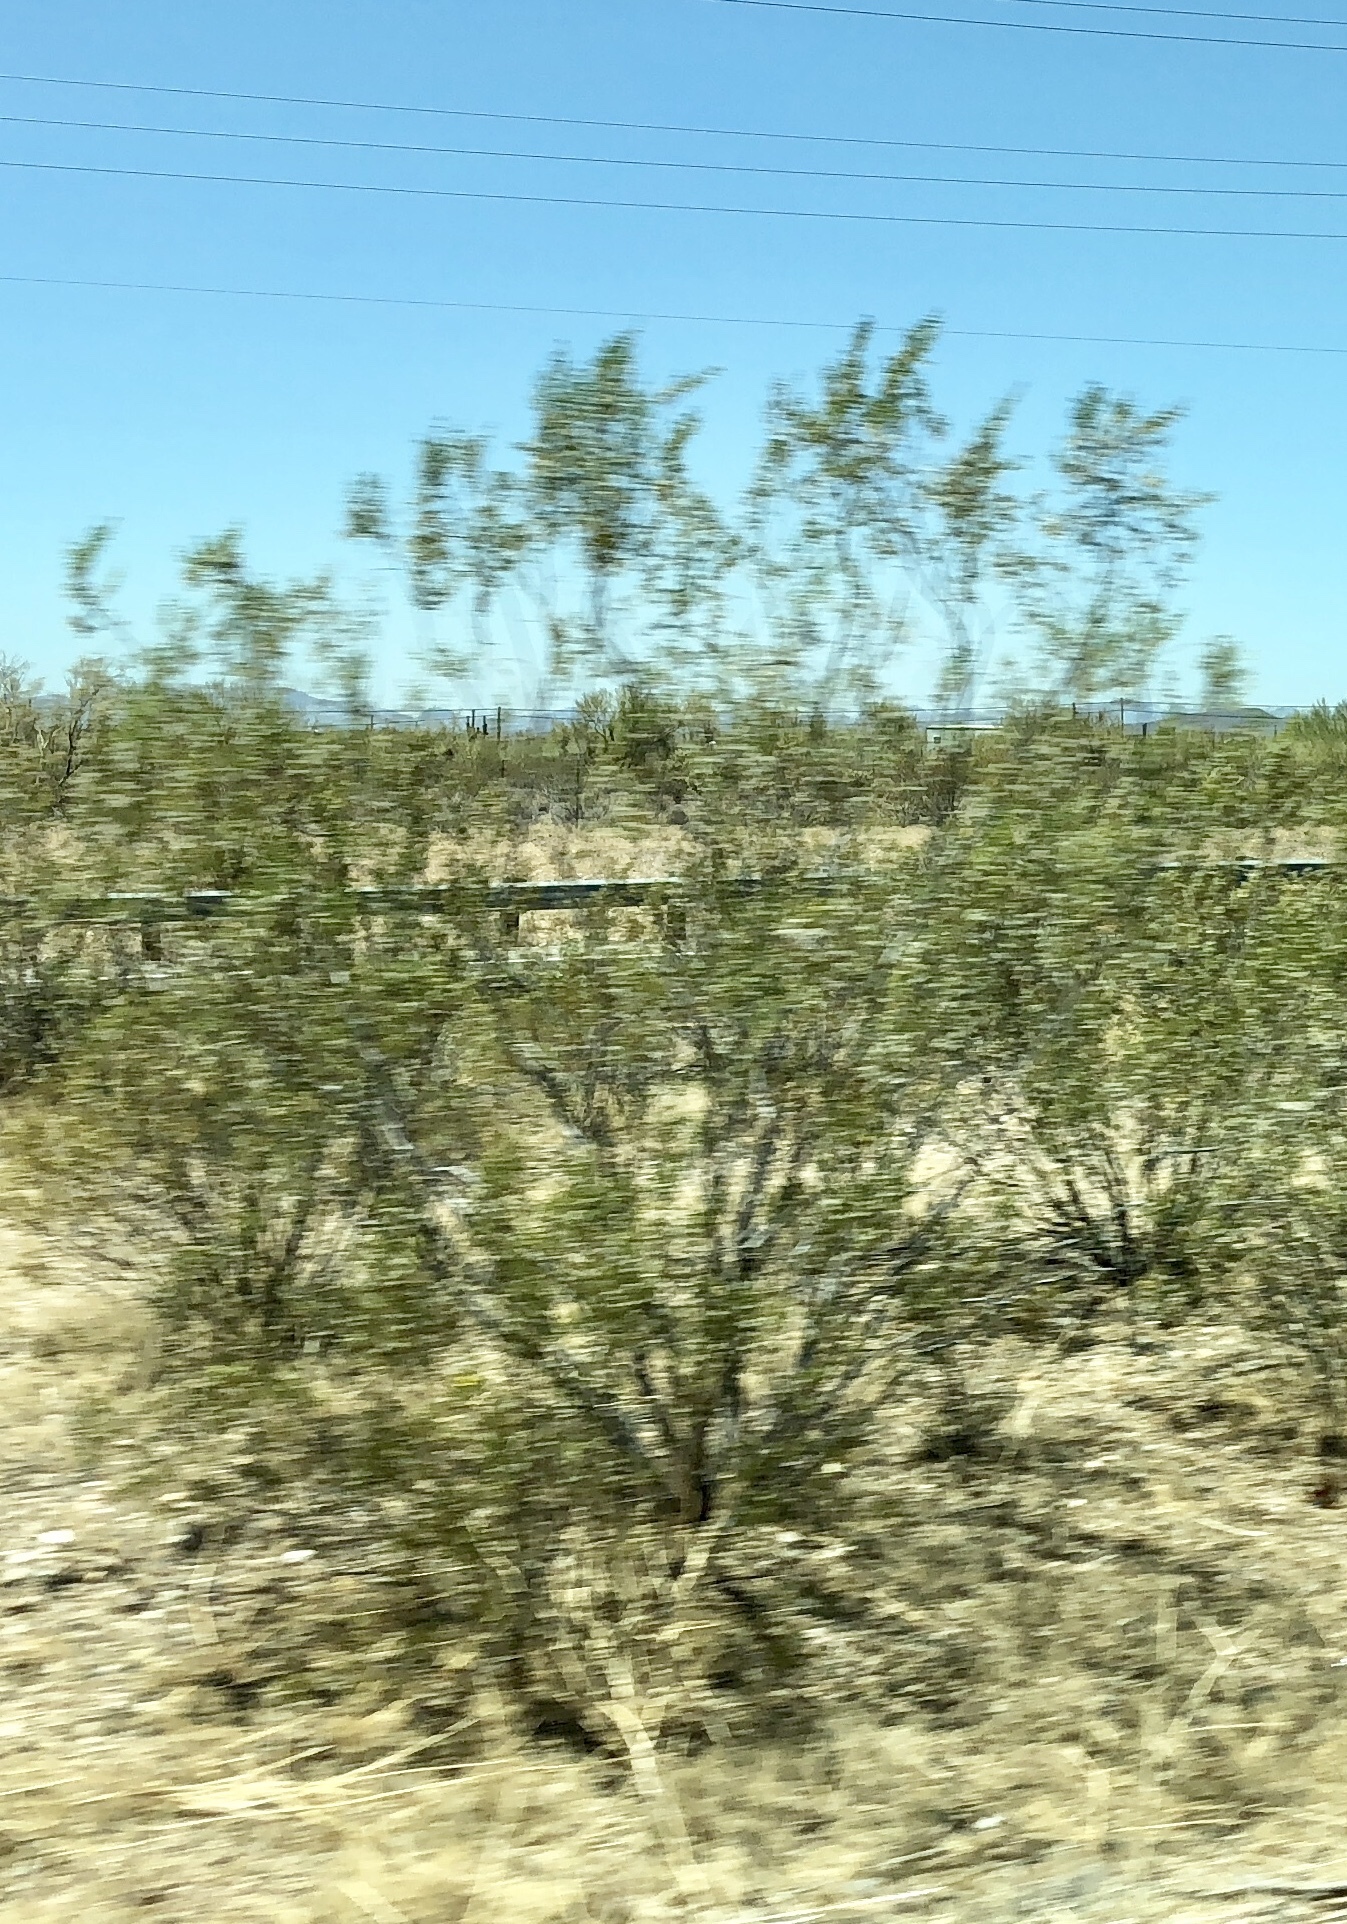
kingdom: Plantae
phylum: Tracheophyta
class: Magnoliopsida
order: Zygophyllales
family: Zygophyllaceae
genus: Larrea
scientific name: Larrea tridentata
